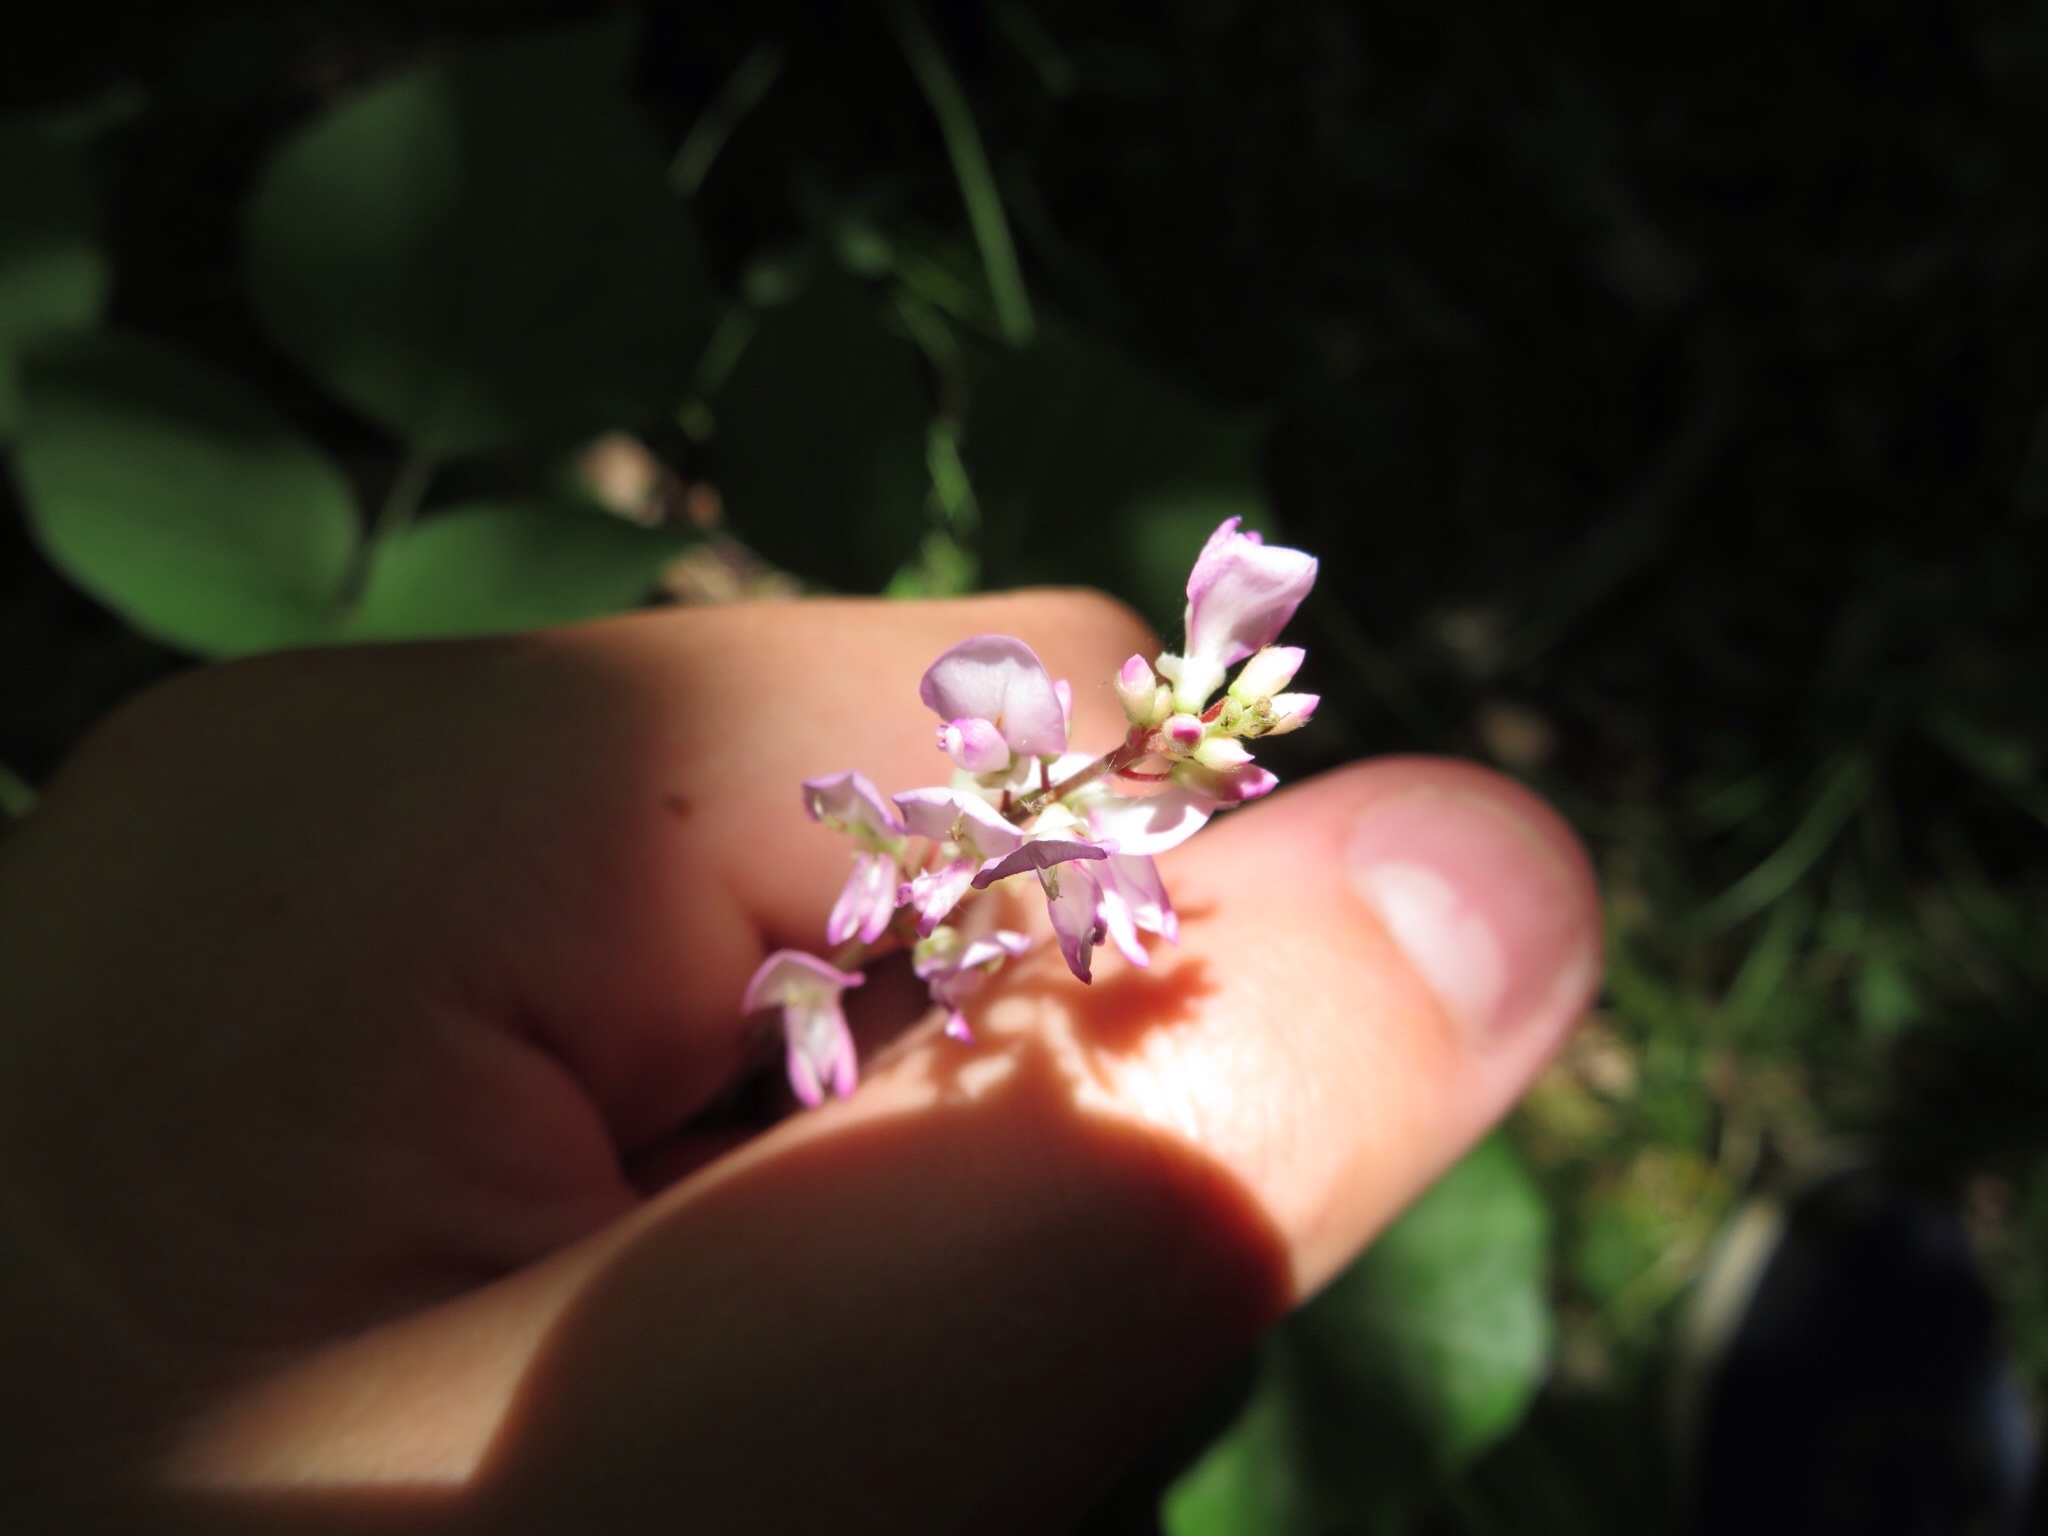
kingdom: Plantae
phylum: Tracheophyta
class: Magnoliopsida
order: Fabales
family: Fabaceae
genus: Hylodesmum
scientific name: Hylodesmum glutinosum
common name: Clustered-leaved tick-trefoil
